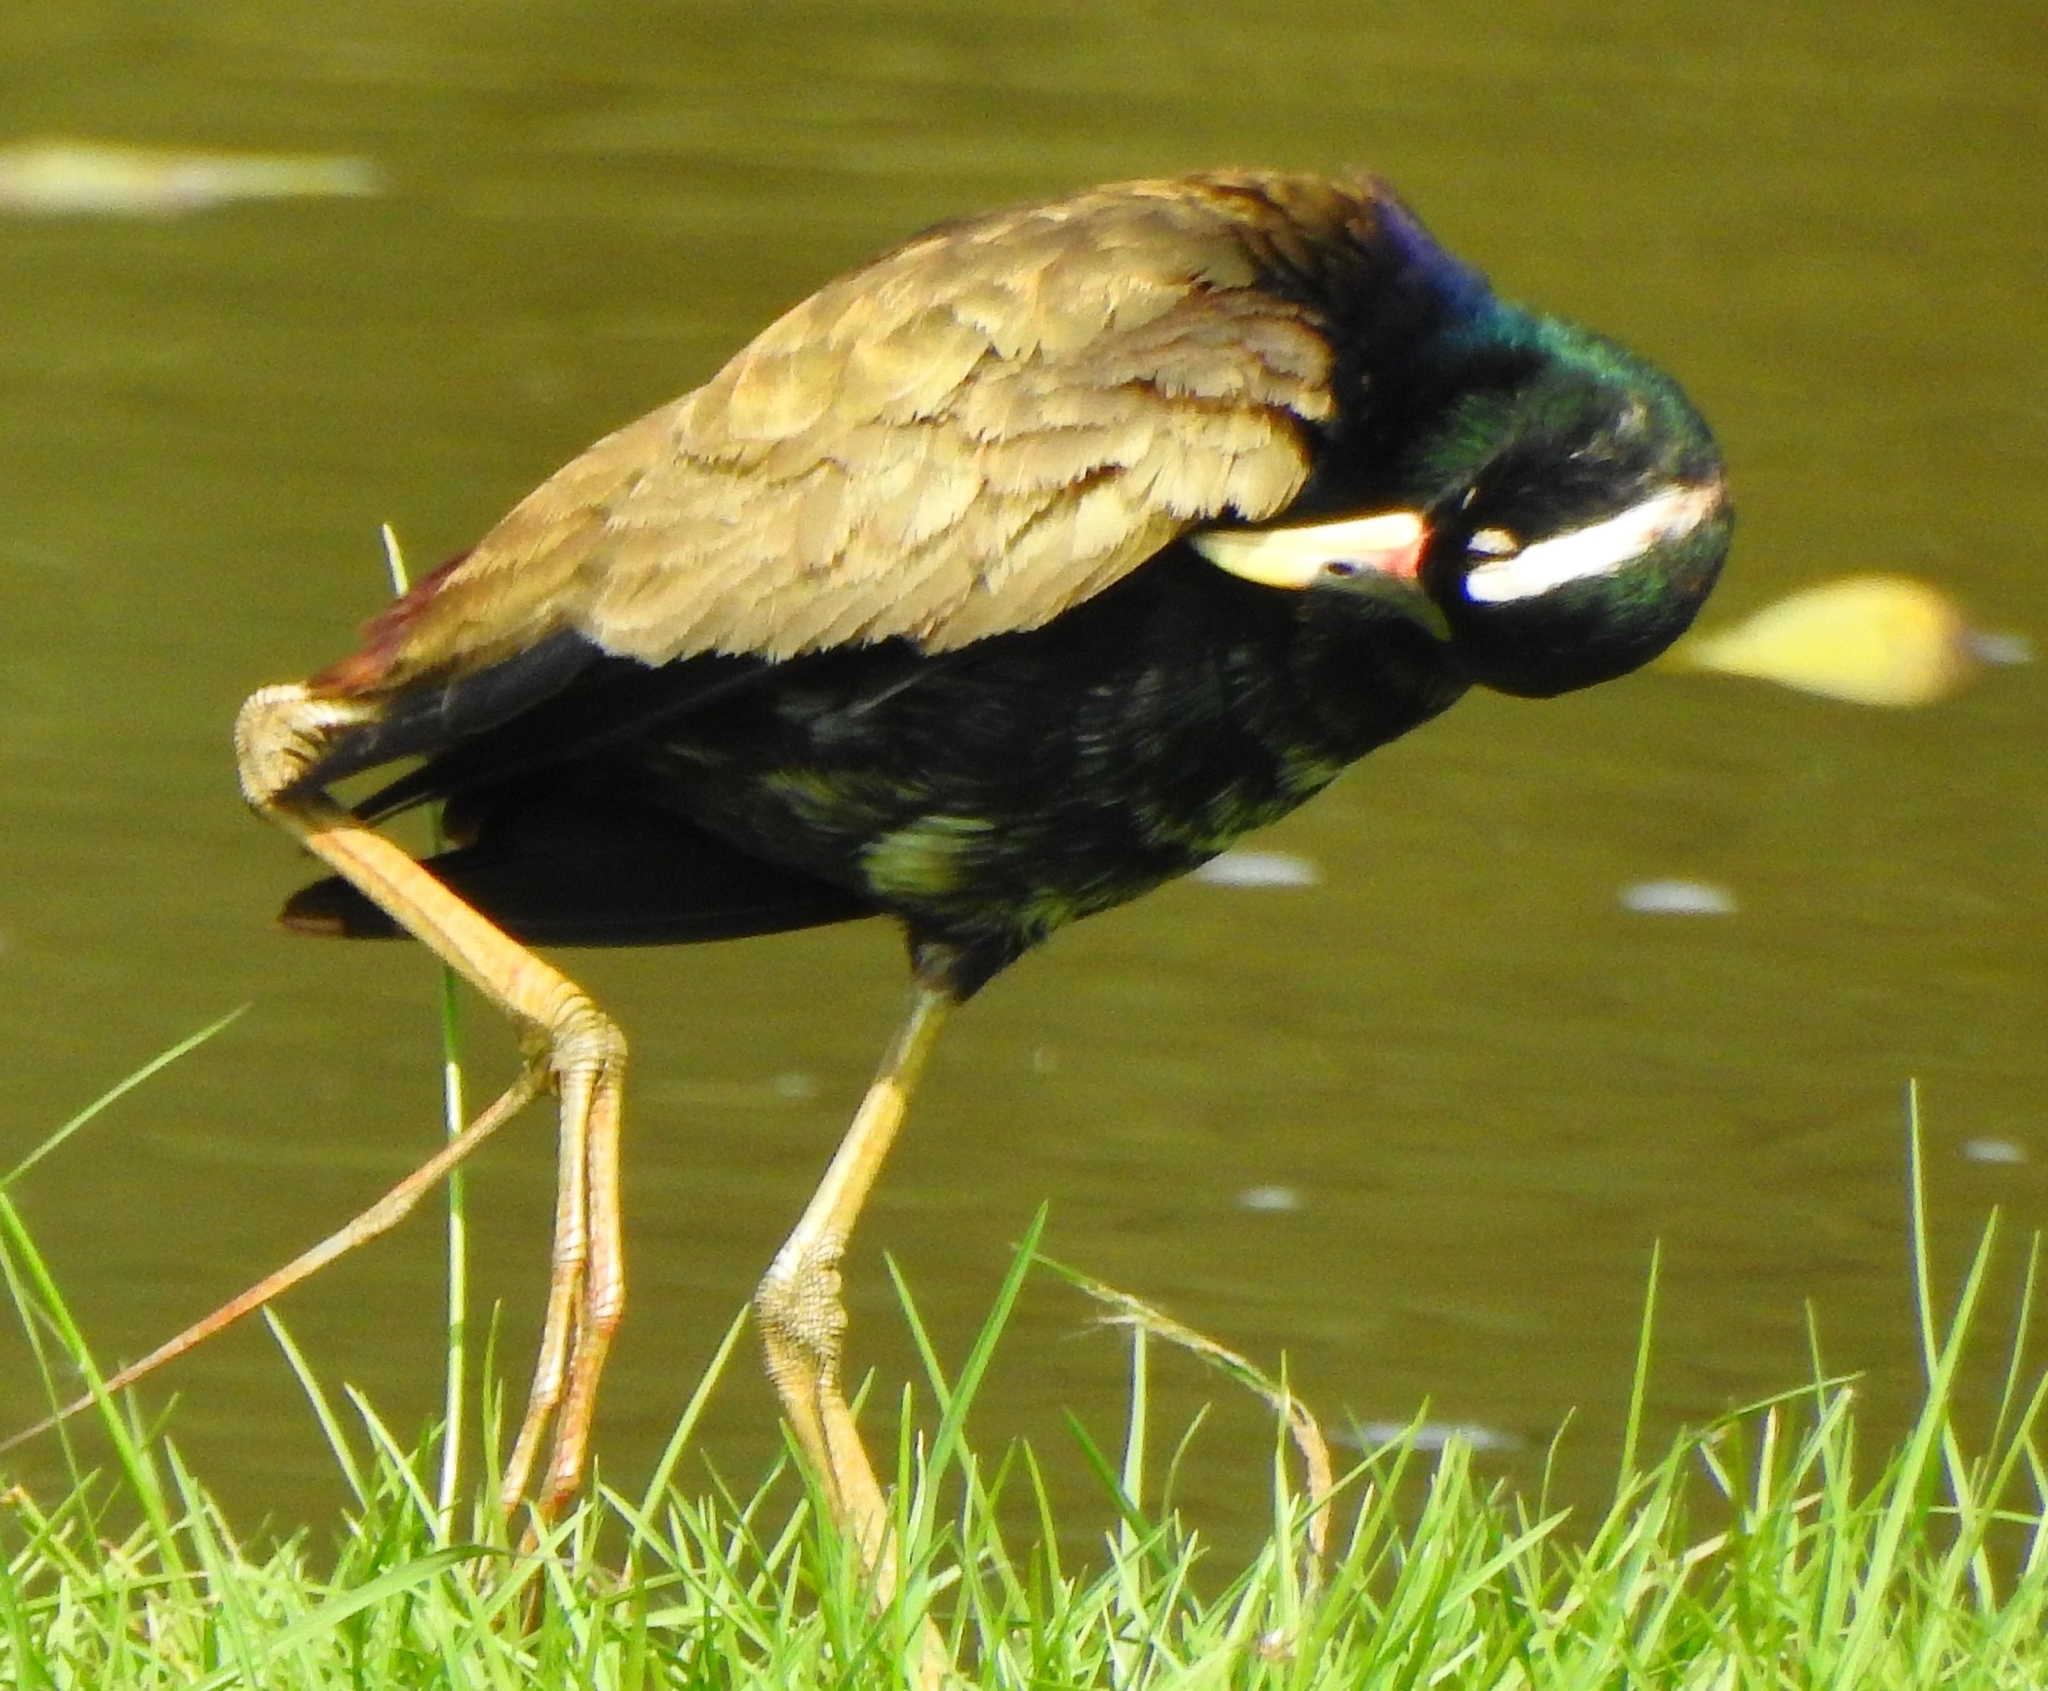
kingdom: Animalia
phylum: Chordata
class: Aves
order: Charadriiformes
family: Jacanidae
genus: Metopidius
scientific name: Metopidius indicus
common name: Bronze-winged jacana
